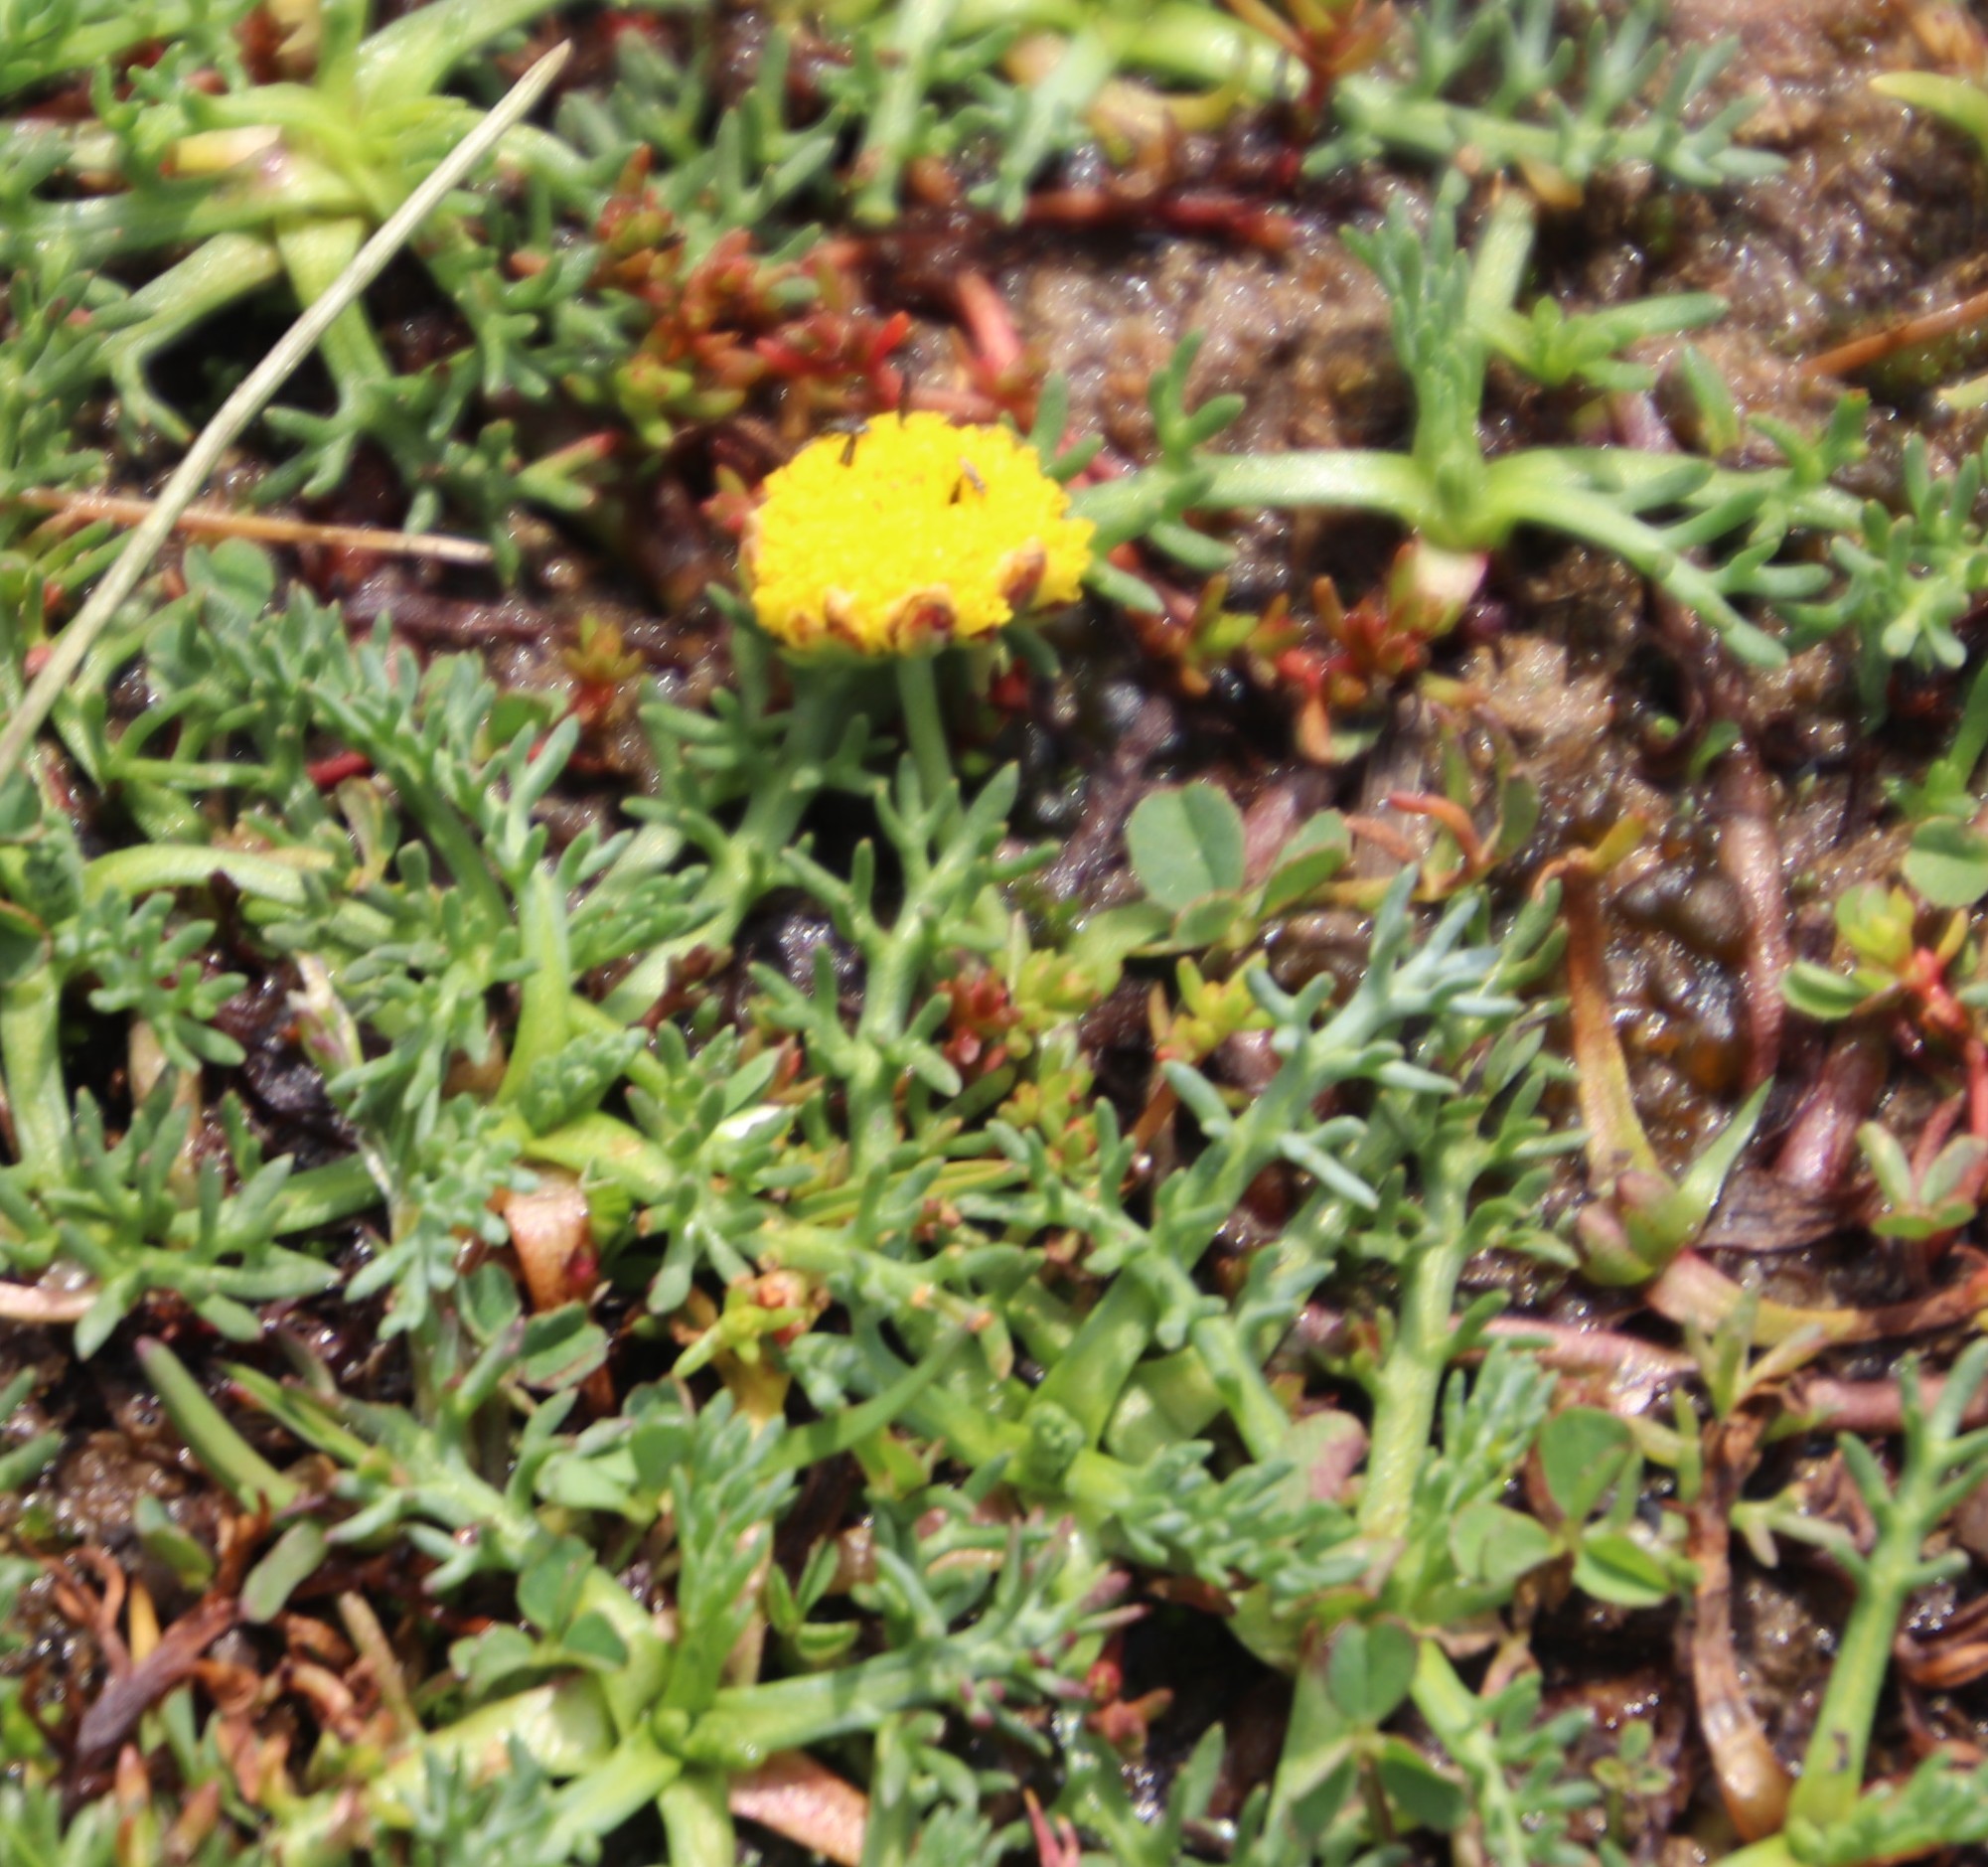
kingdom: Plantae
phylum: Tracheophyta
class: Magnoliopsida
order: Asterales
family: Asteraceae
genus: Cotula
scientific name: Cotula paludosa
